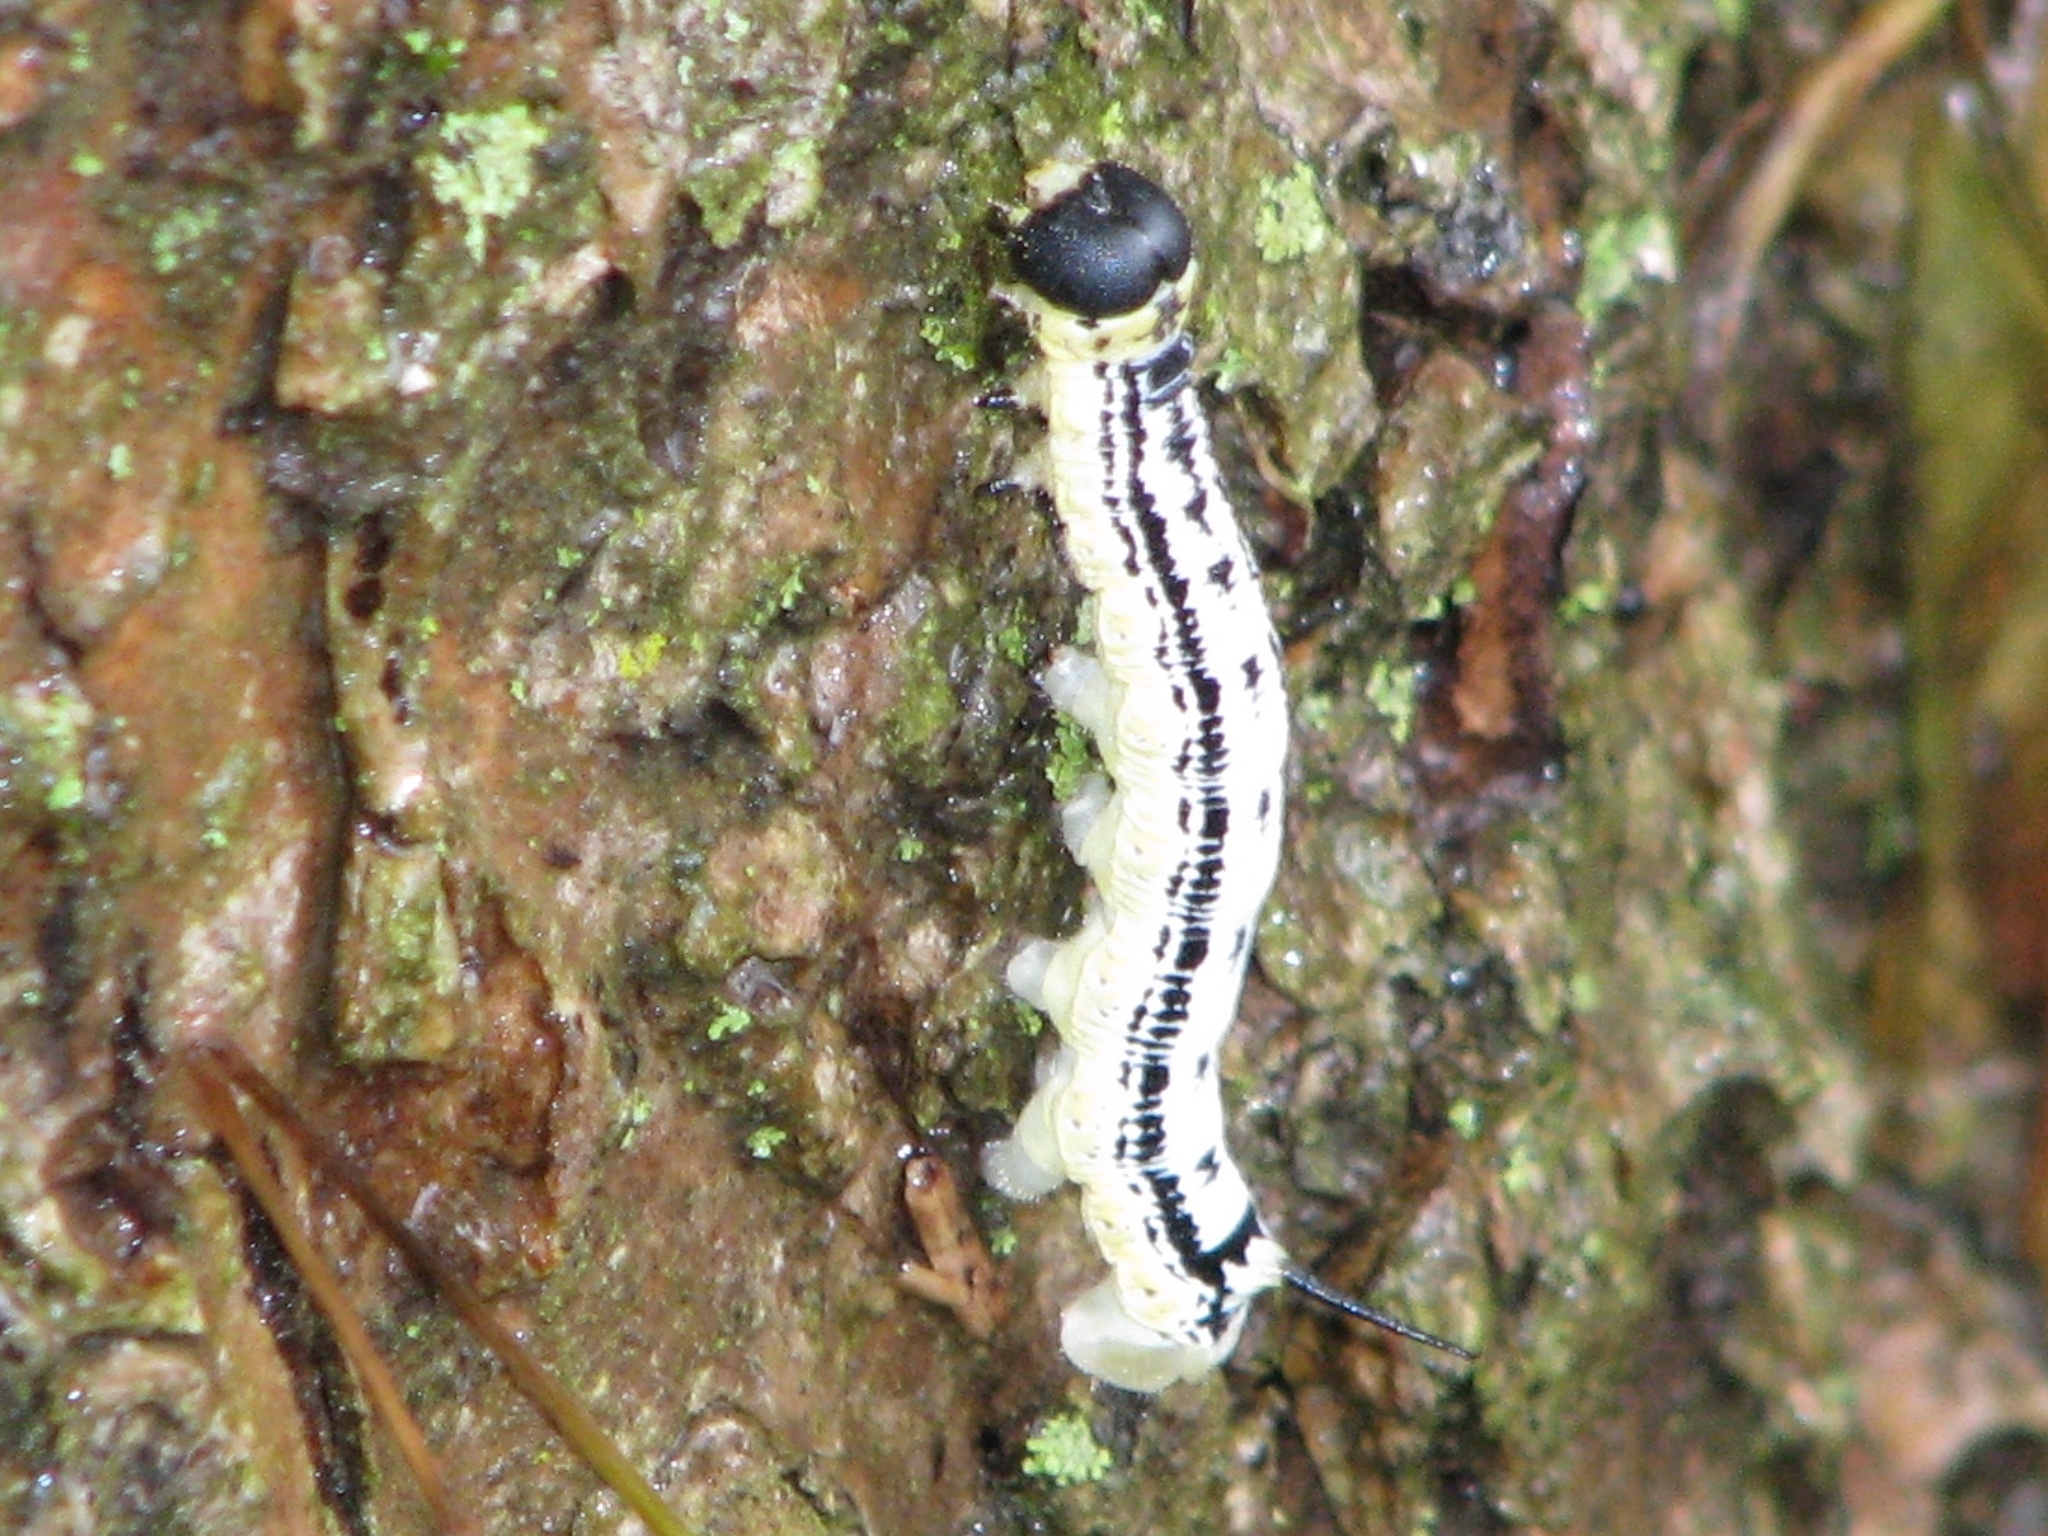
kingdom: Animalia
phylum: Arthropoda
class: Insecta
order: Lepidoptera
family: Sphingidae
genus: Ceratomia
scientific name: Ceratomia catalpae
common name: Catalpa hornworm
